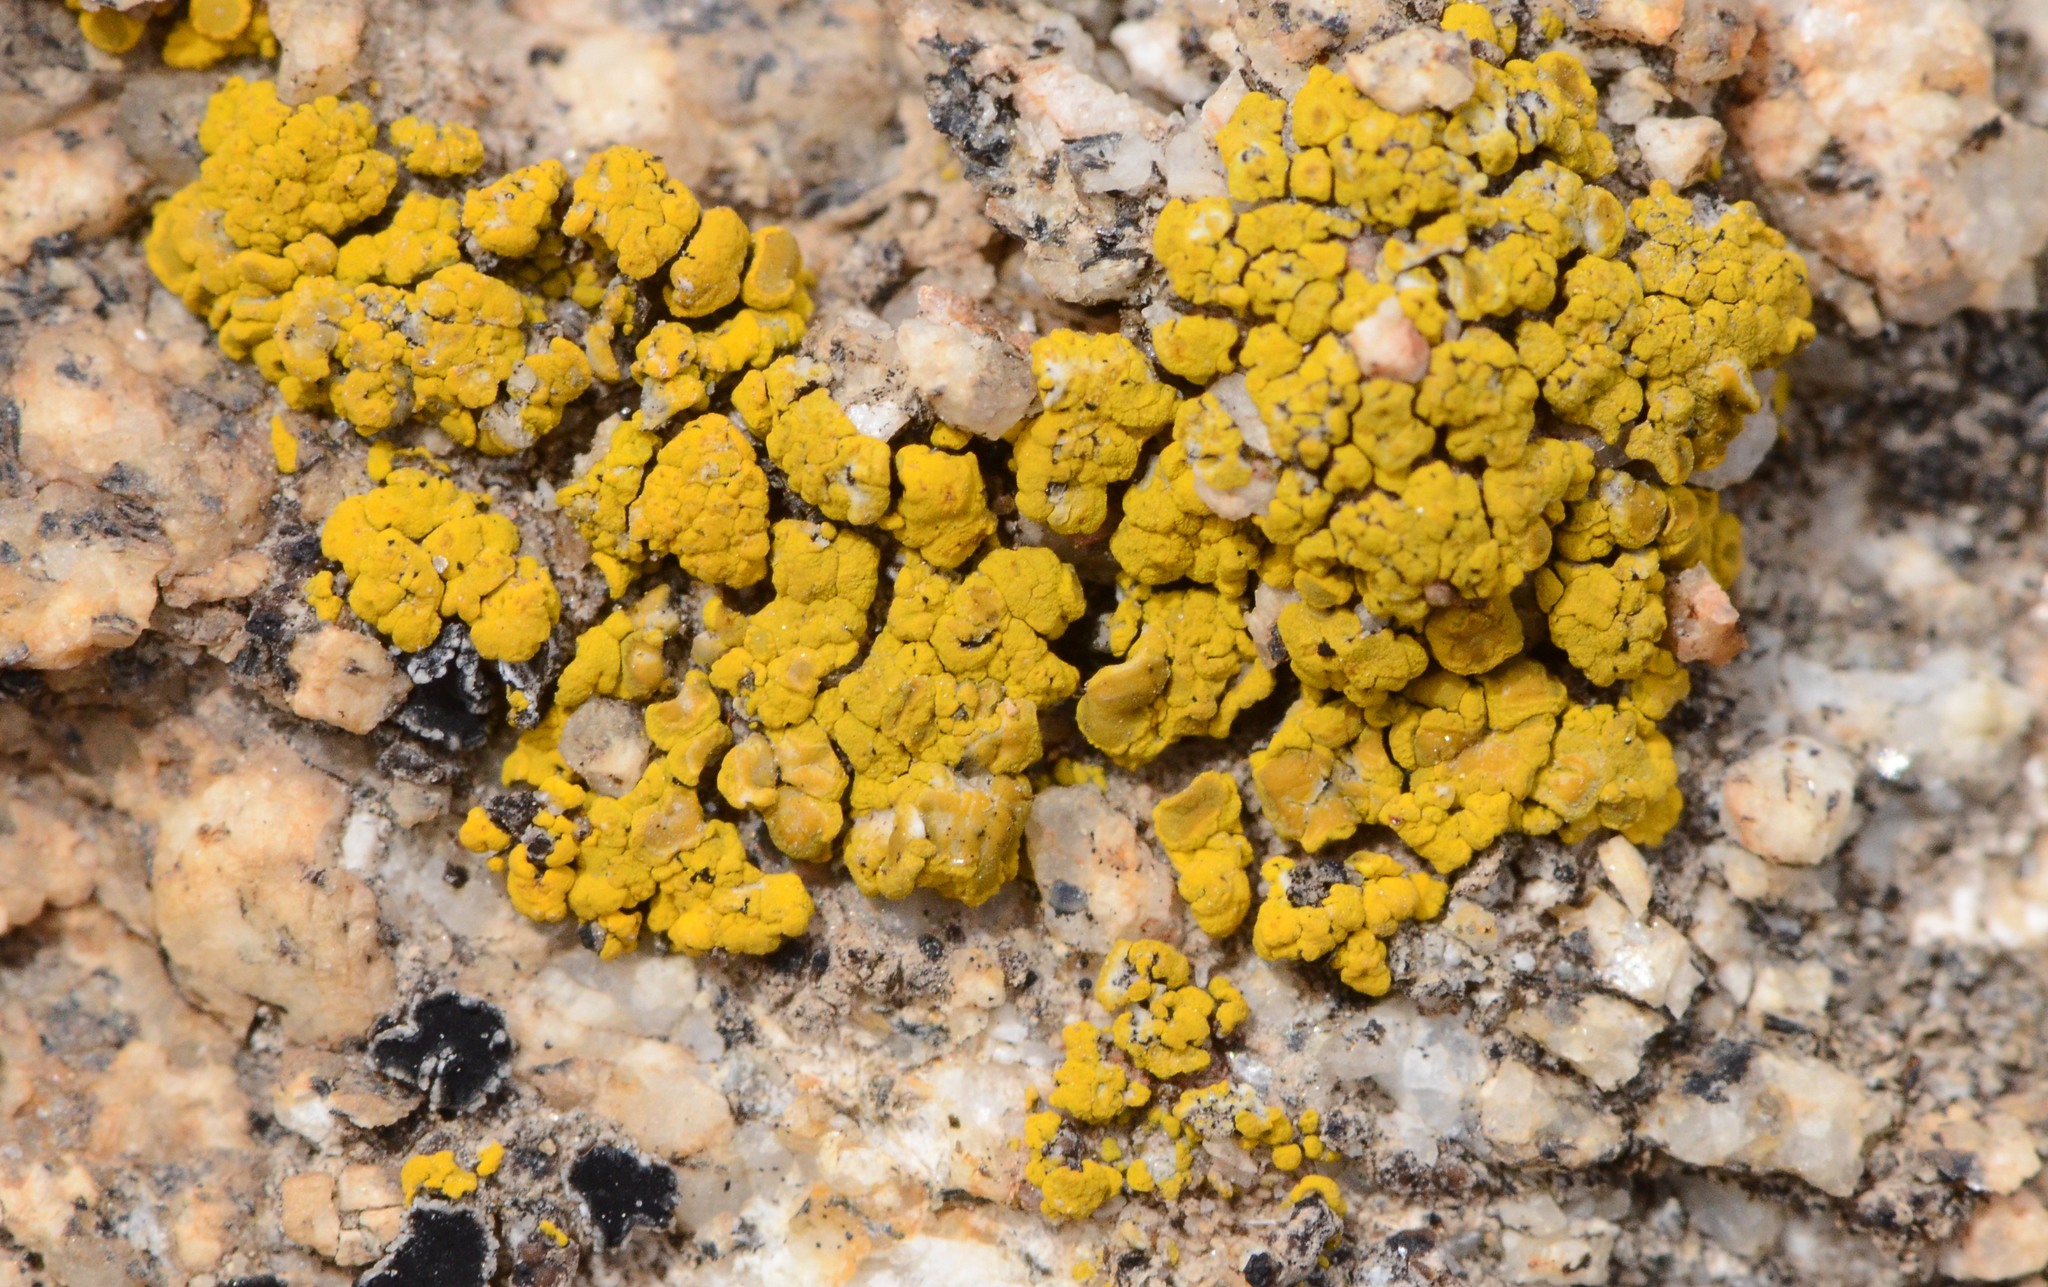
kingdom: Fungi
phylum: Ascomycota
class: Candelariomycetes
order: Candelariales
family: Candelariaceae
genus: Candelariella
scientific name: Candelariella
